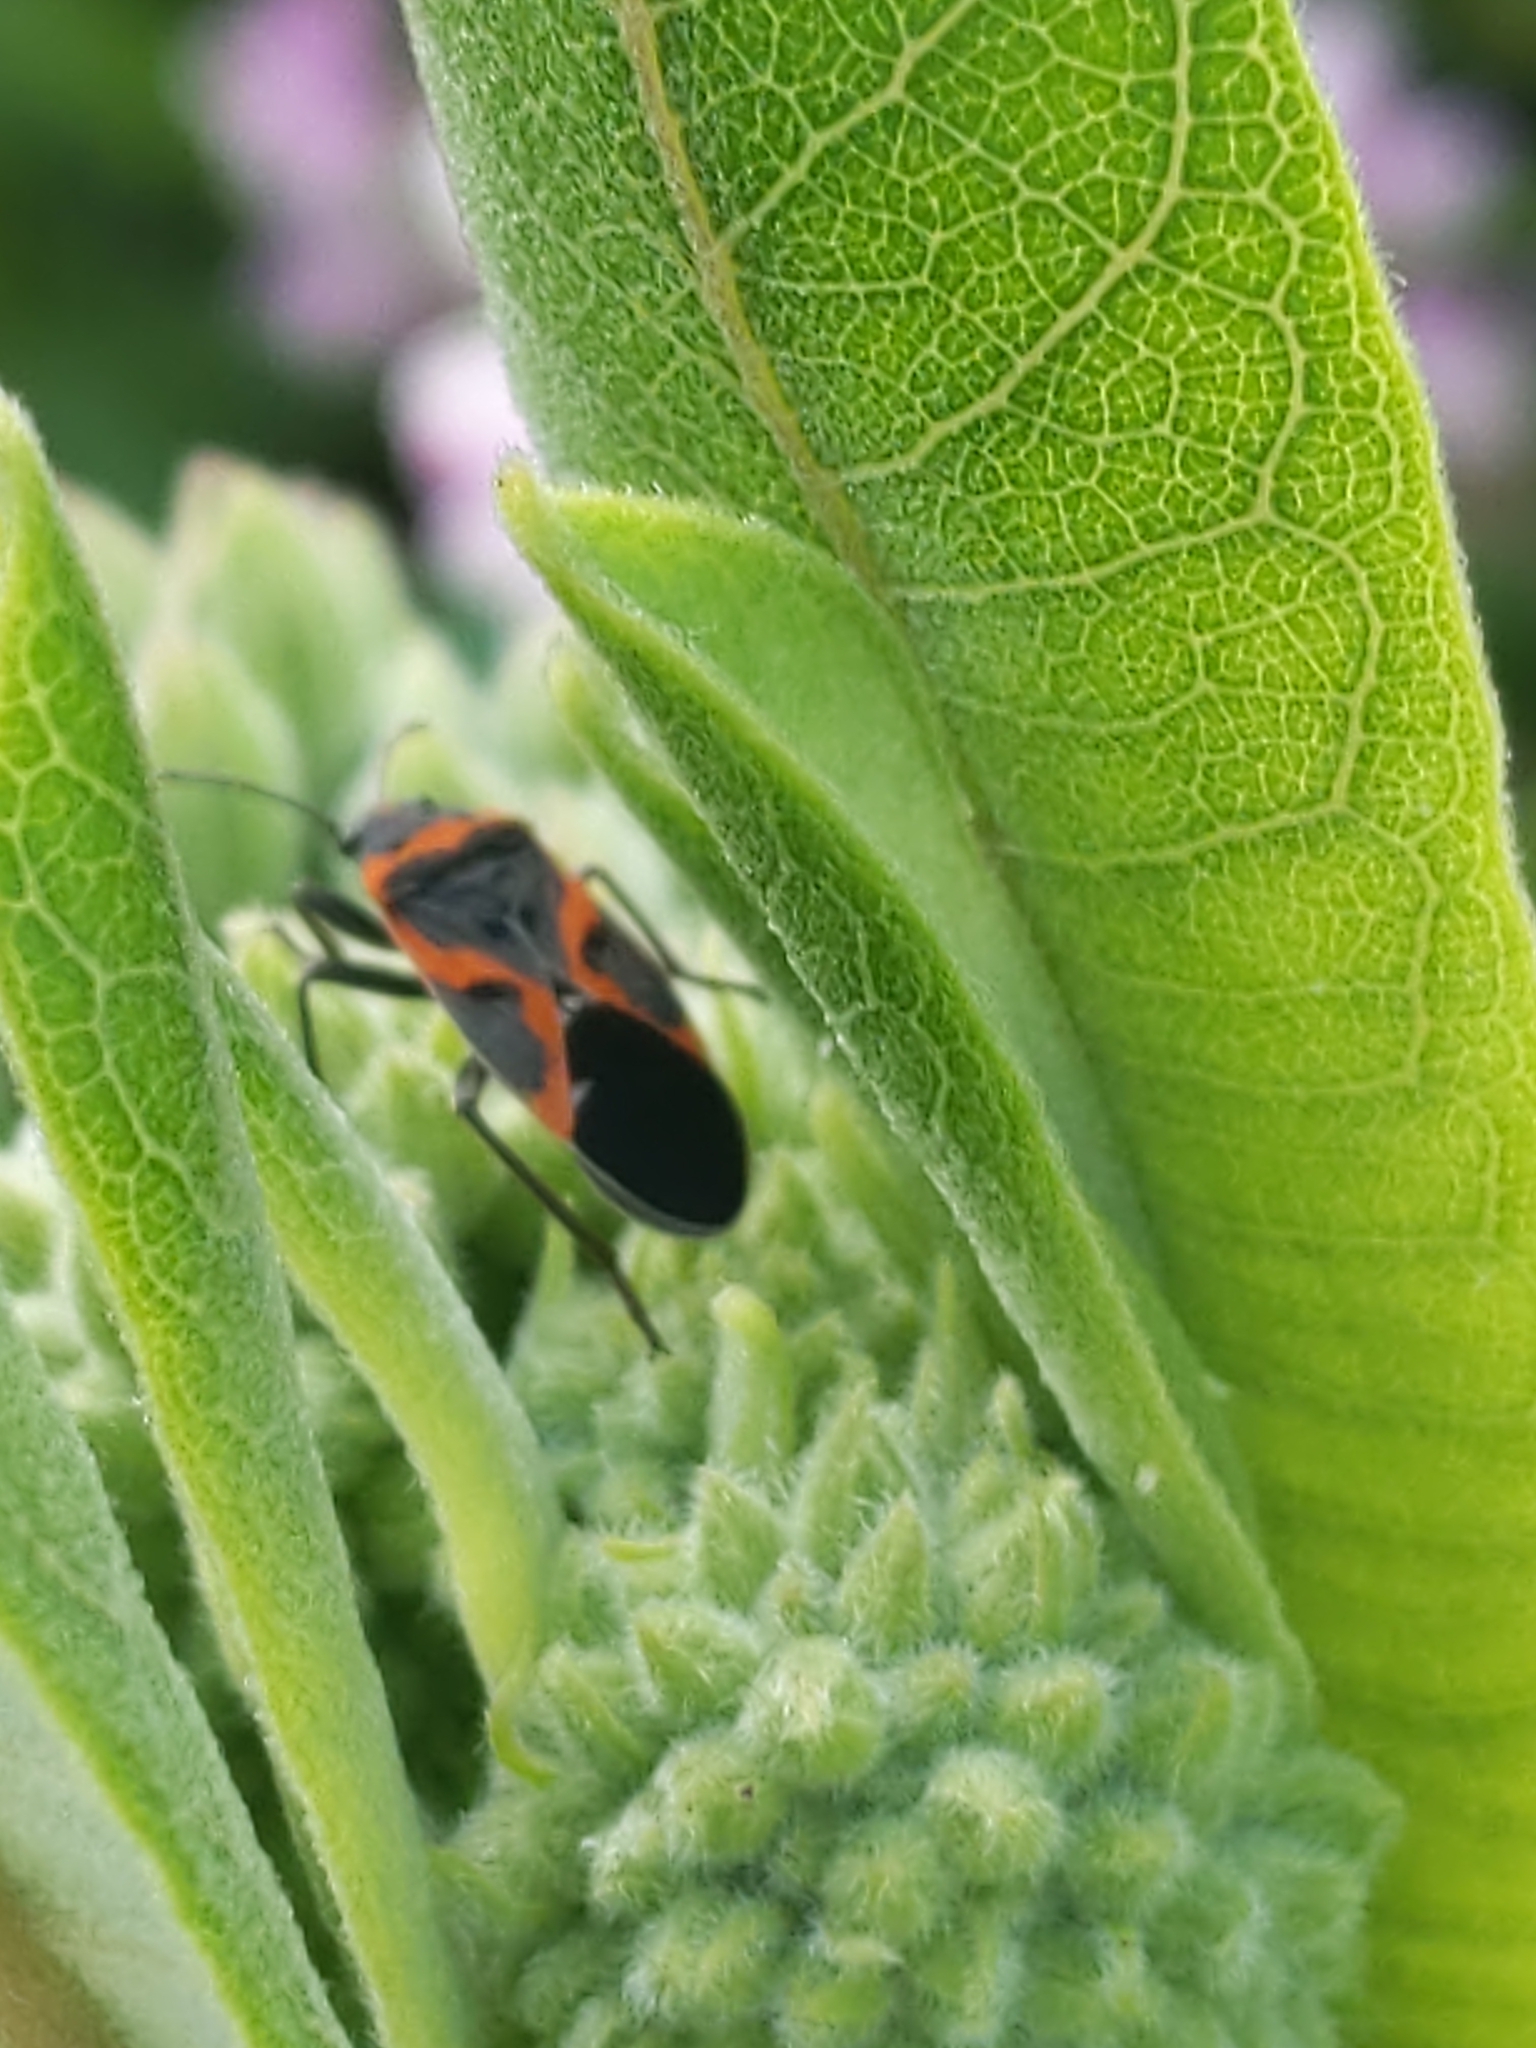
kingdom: Animalia
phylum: Arthropoda
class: Insecta
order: Hemiptera
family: Lygaeidae
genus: Lygaeus
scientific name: Lygaeus kalmii
